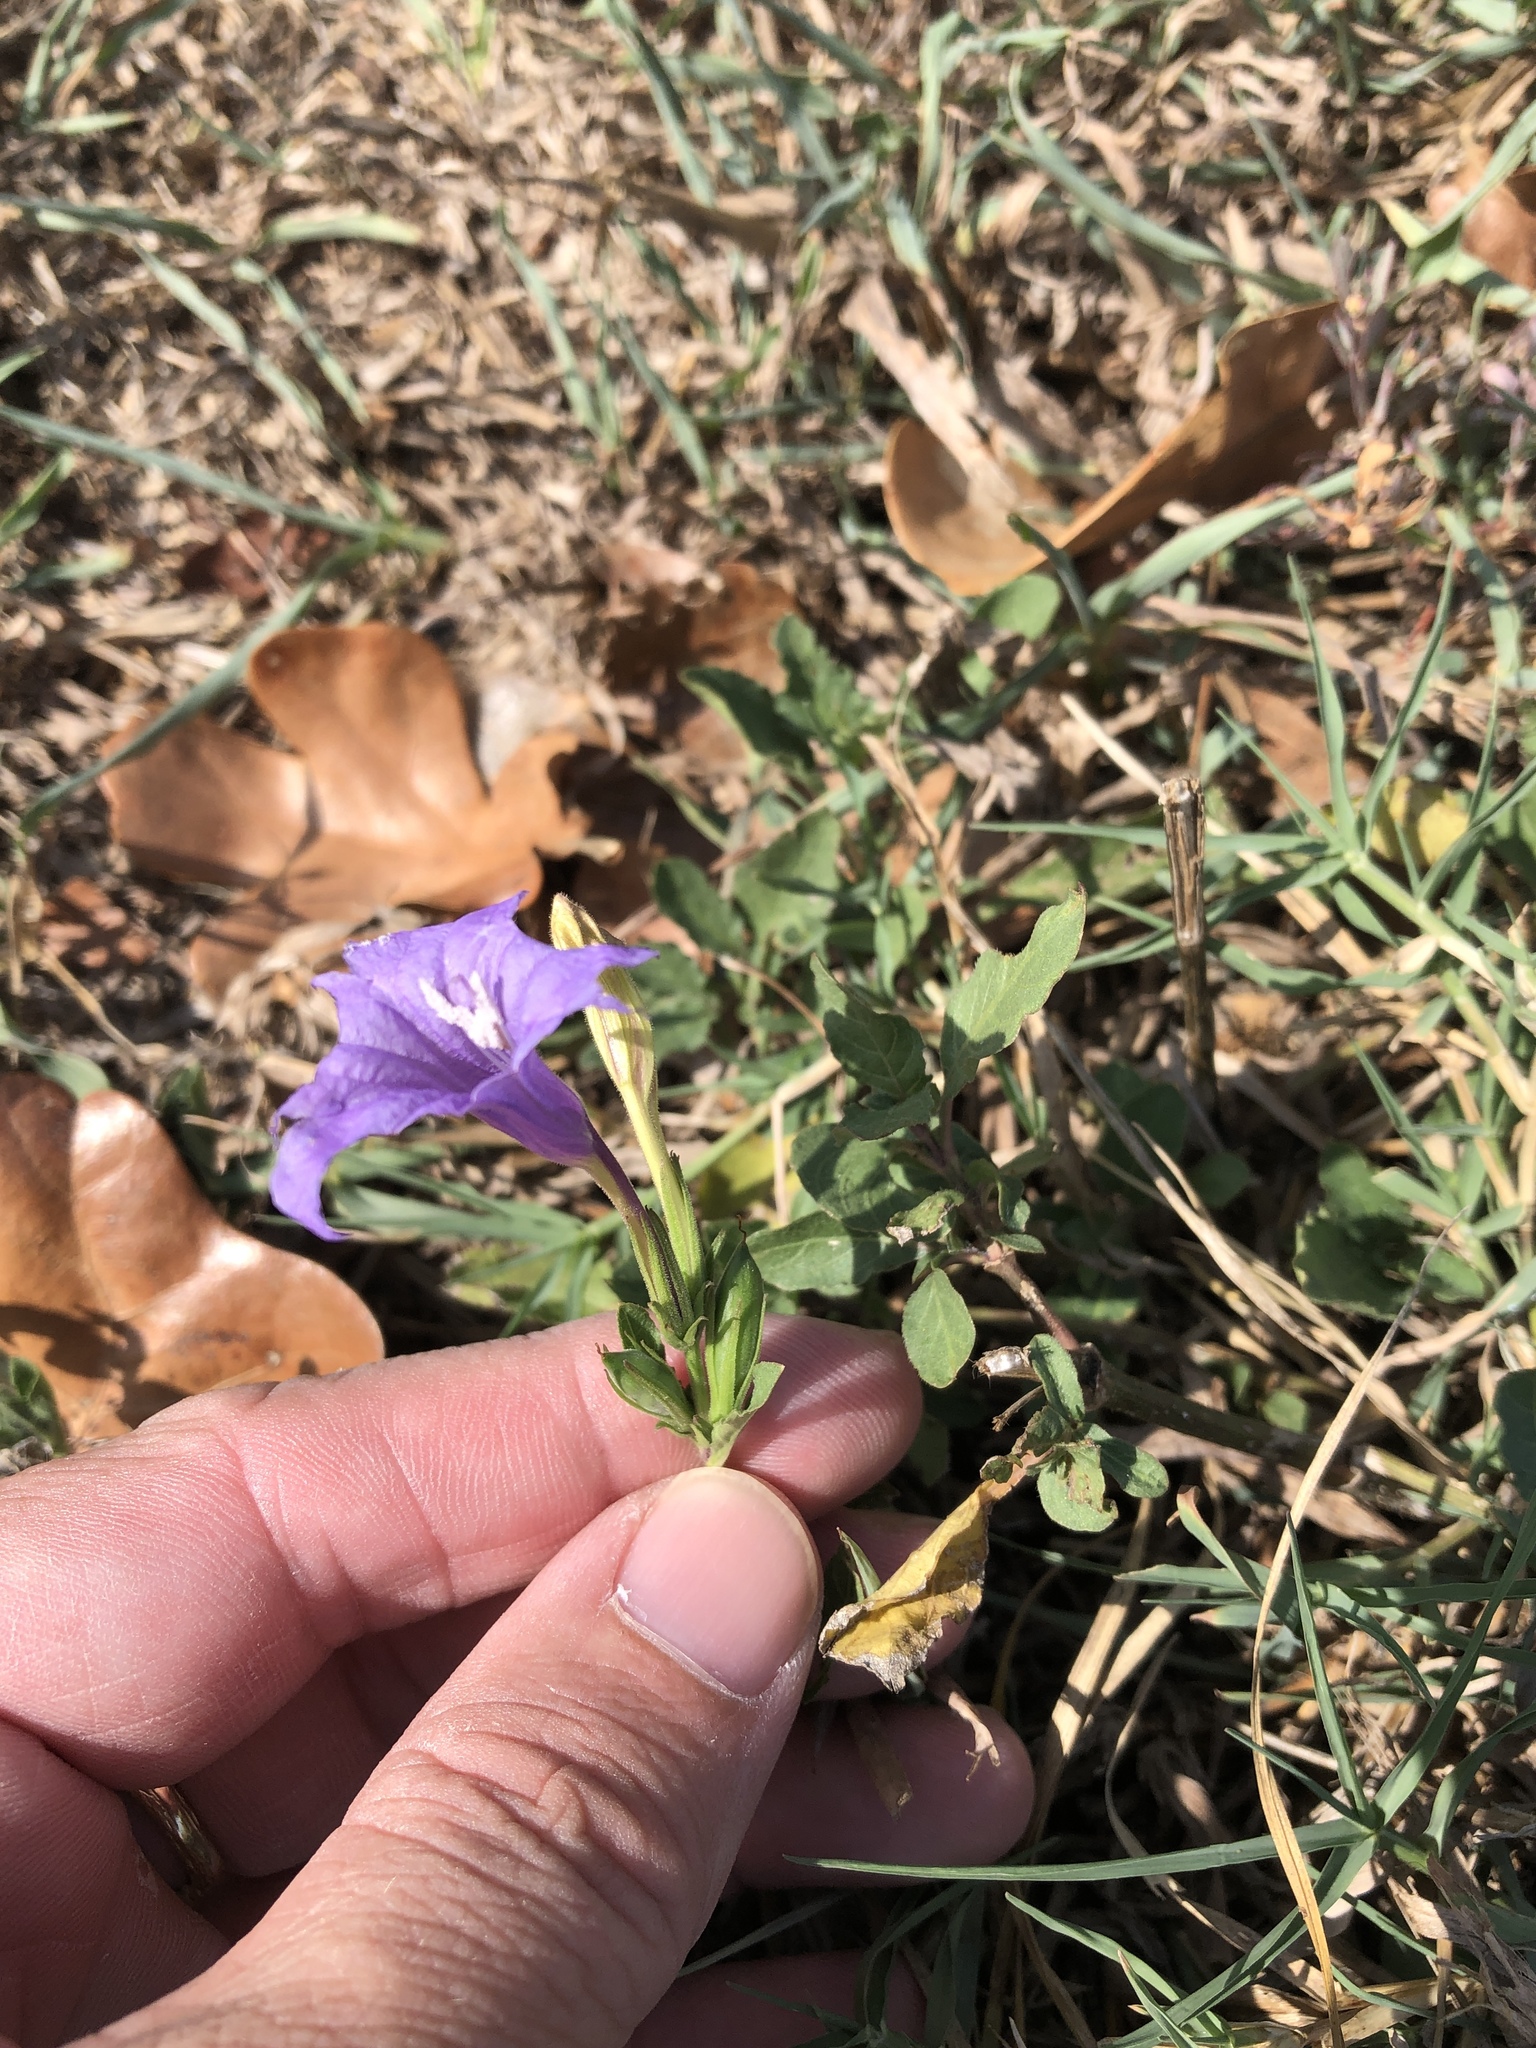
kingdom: Plantae
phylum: Tracheophyta
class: Magnoliopsida
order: Lamiales
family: Acanthaceae
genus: Ruellia
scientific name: Ruellia ciliatiflora
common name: Hairyflower wild petunia
